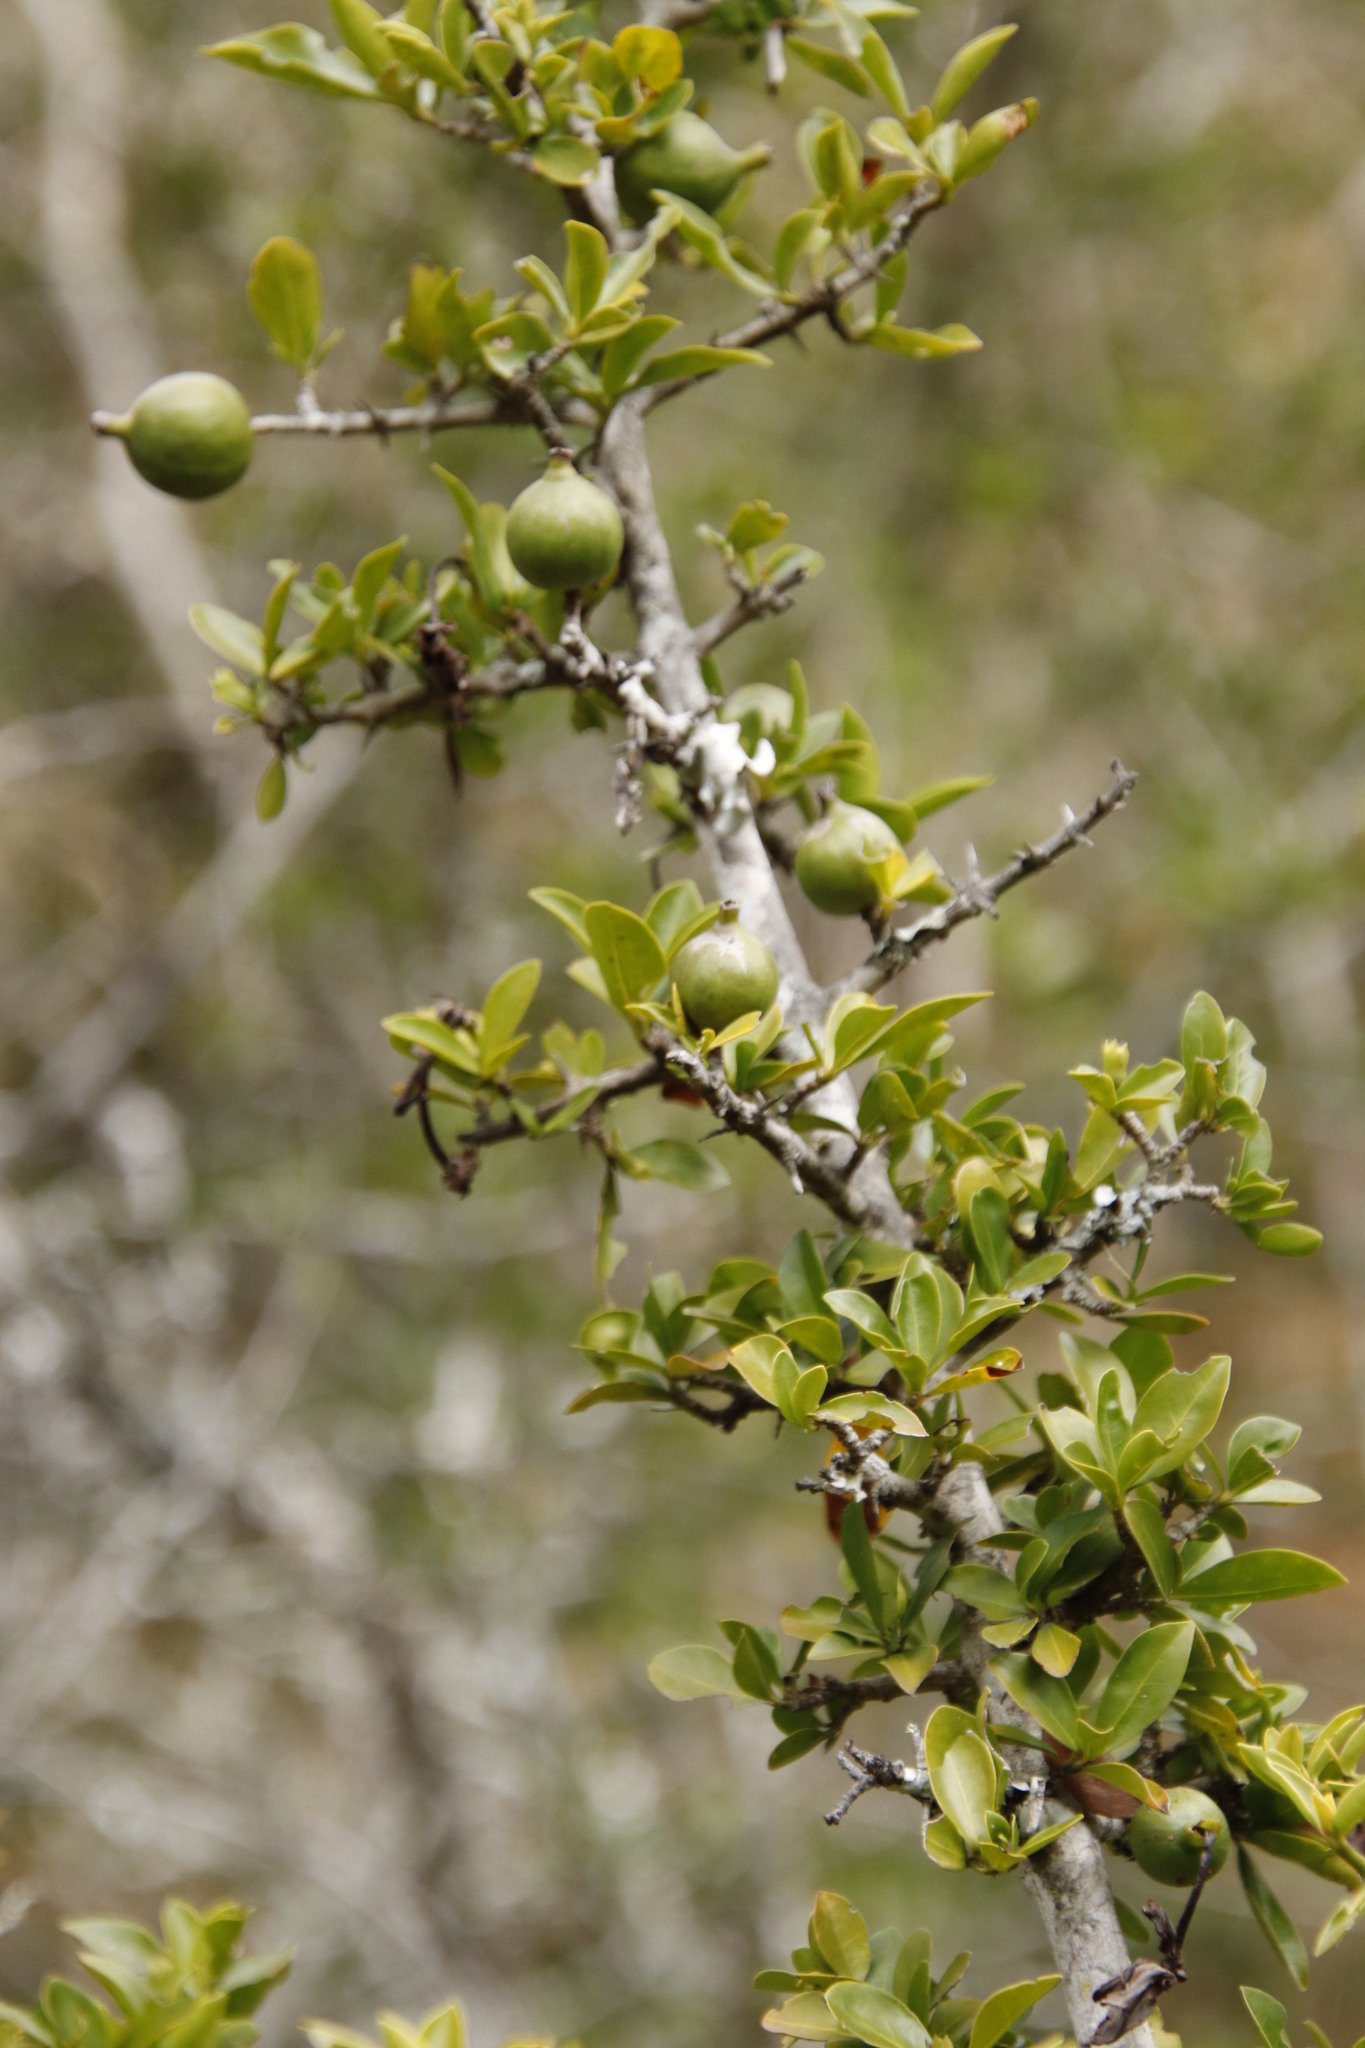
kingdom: Plantae
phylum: Tracheophyta
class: Magnoliopsida
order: Gentianales
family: Rubiaceae
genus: Hyperacanthus
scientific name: Hyperacanthus amoenus
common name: Spiny gardenia
